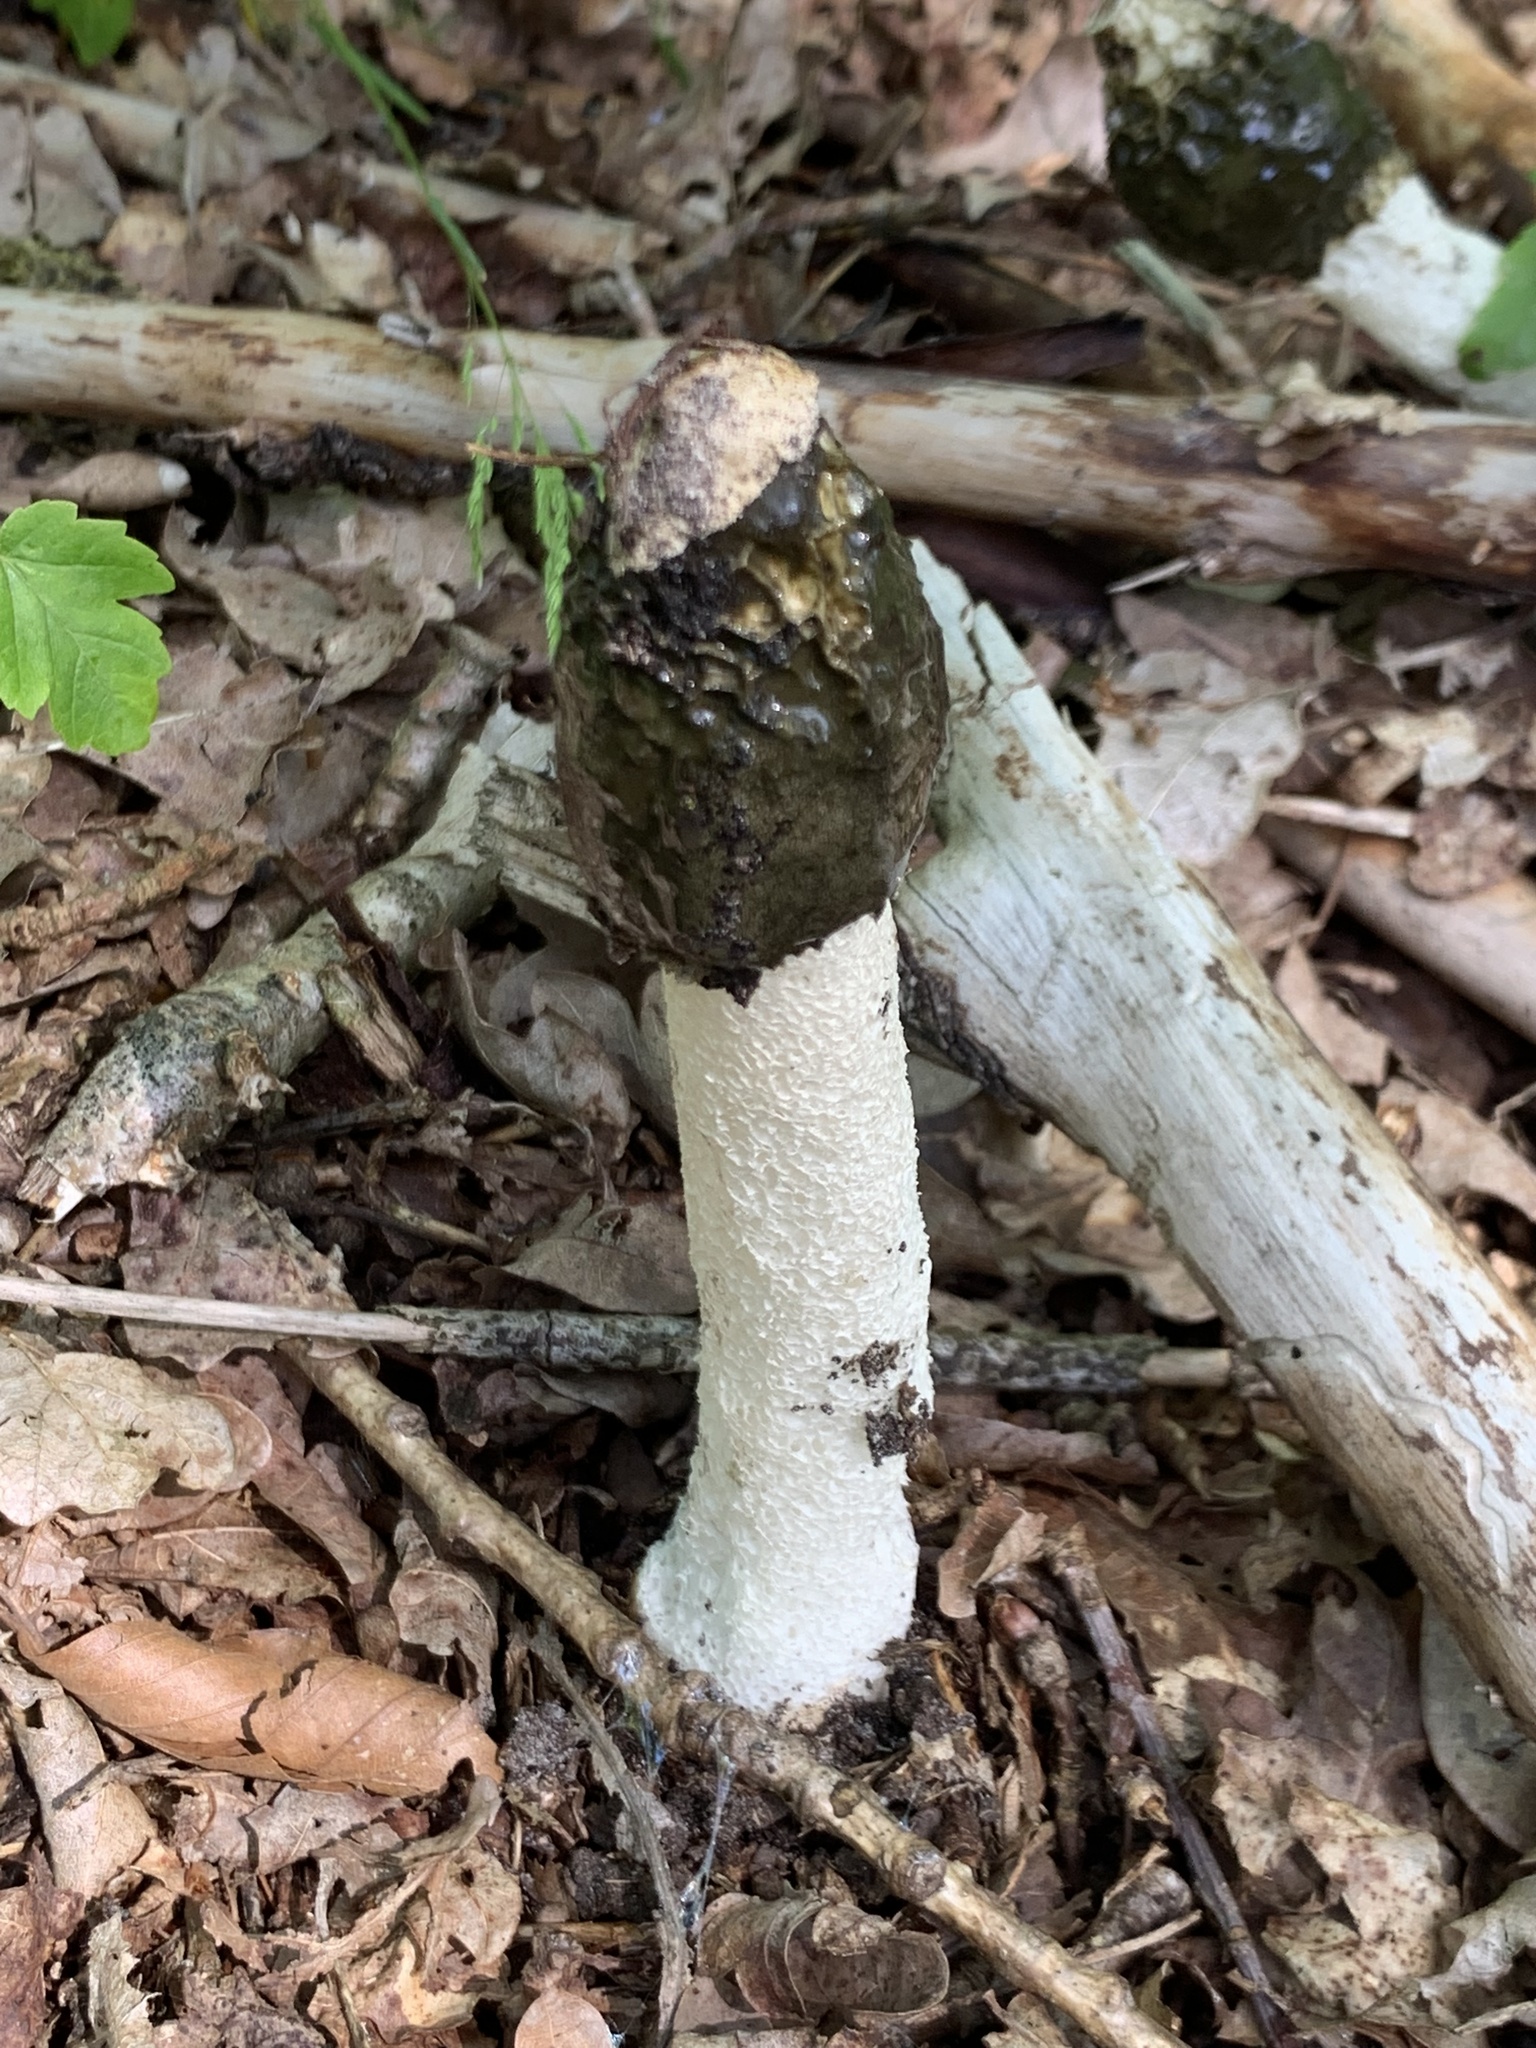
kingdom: Fungi
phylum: Basidiomycota
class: Agaricomycetes
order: Phallales
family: Phallaceae
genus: Phallus
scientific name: Phallus impudicus
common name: Common stinkhorn
